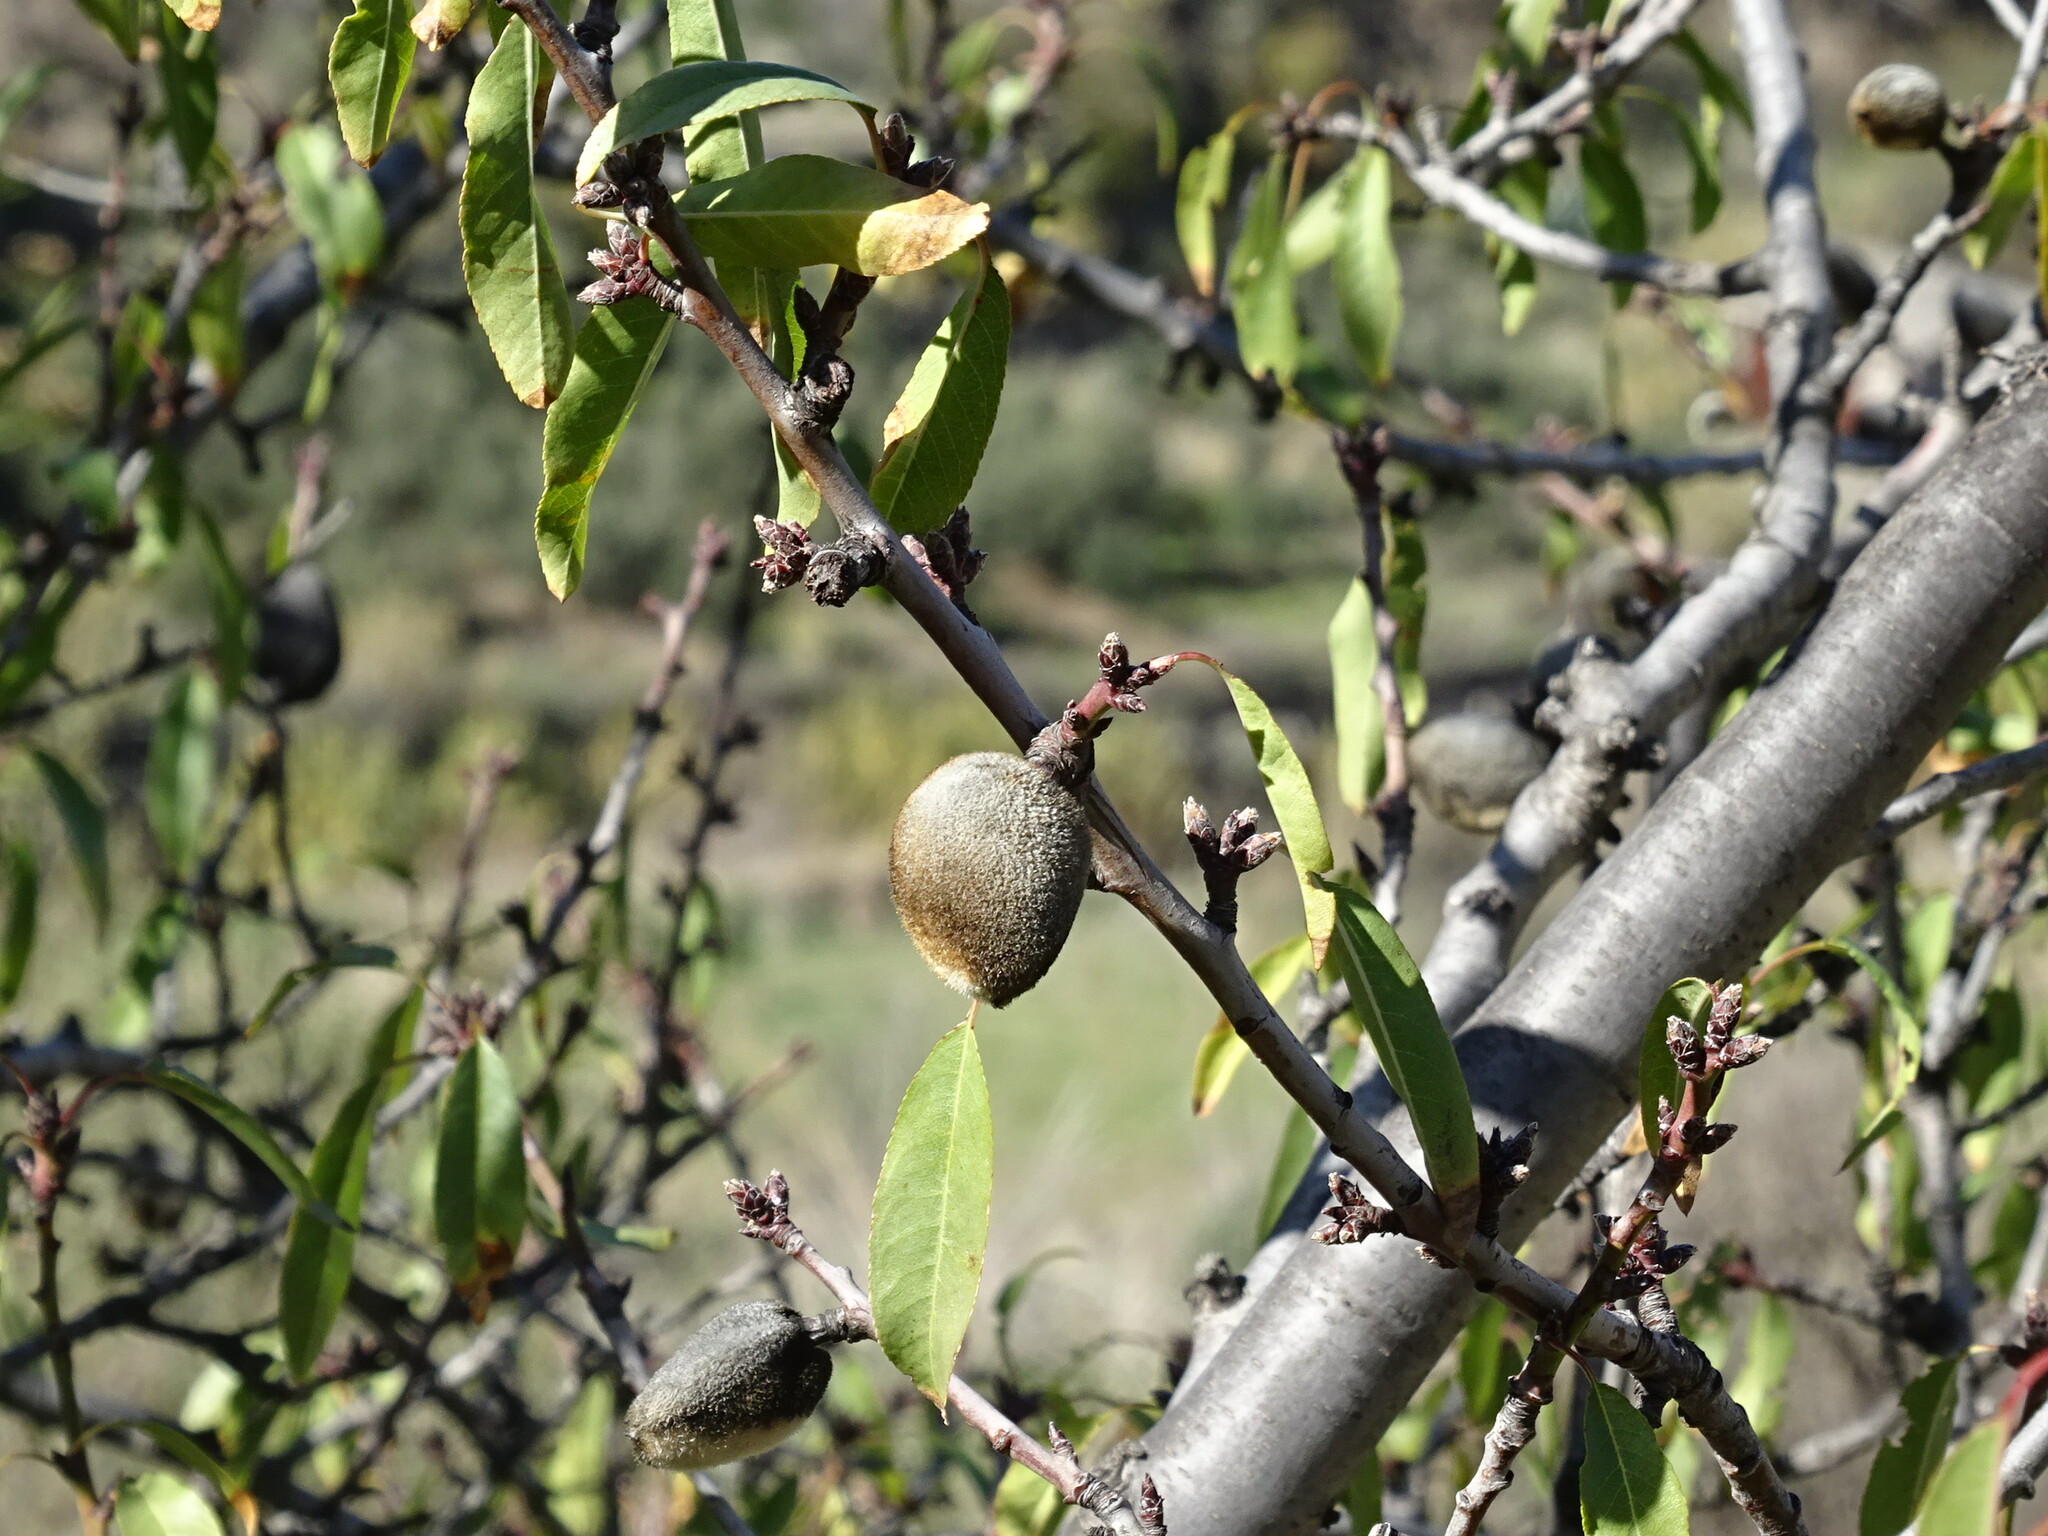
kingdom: Plantae
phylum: Tracheophyta
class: Magnoliopsida
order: Rosales
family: Rosaceae
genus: Prunus
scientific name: Prunus amygdalus
